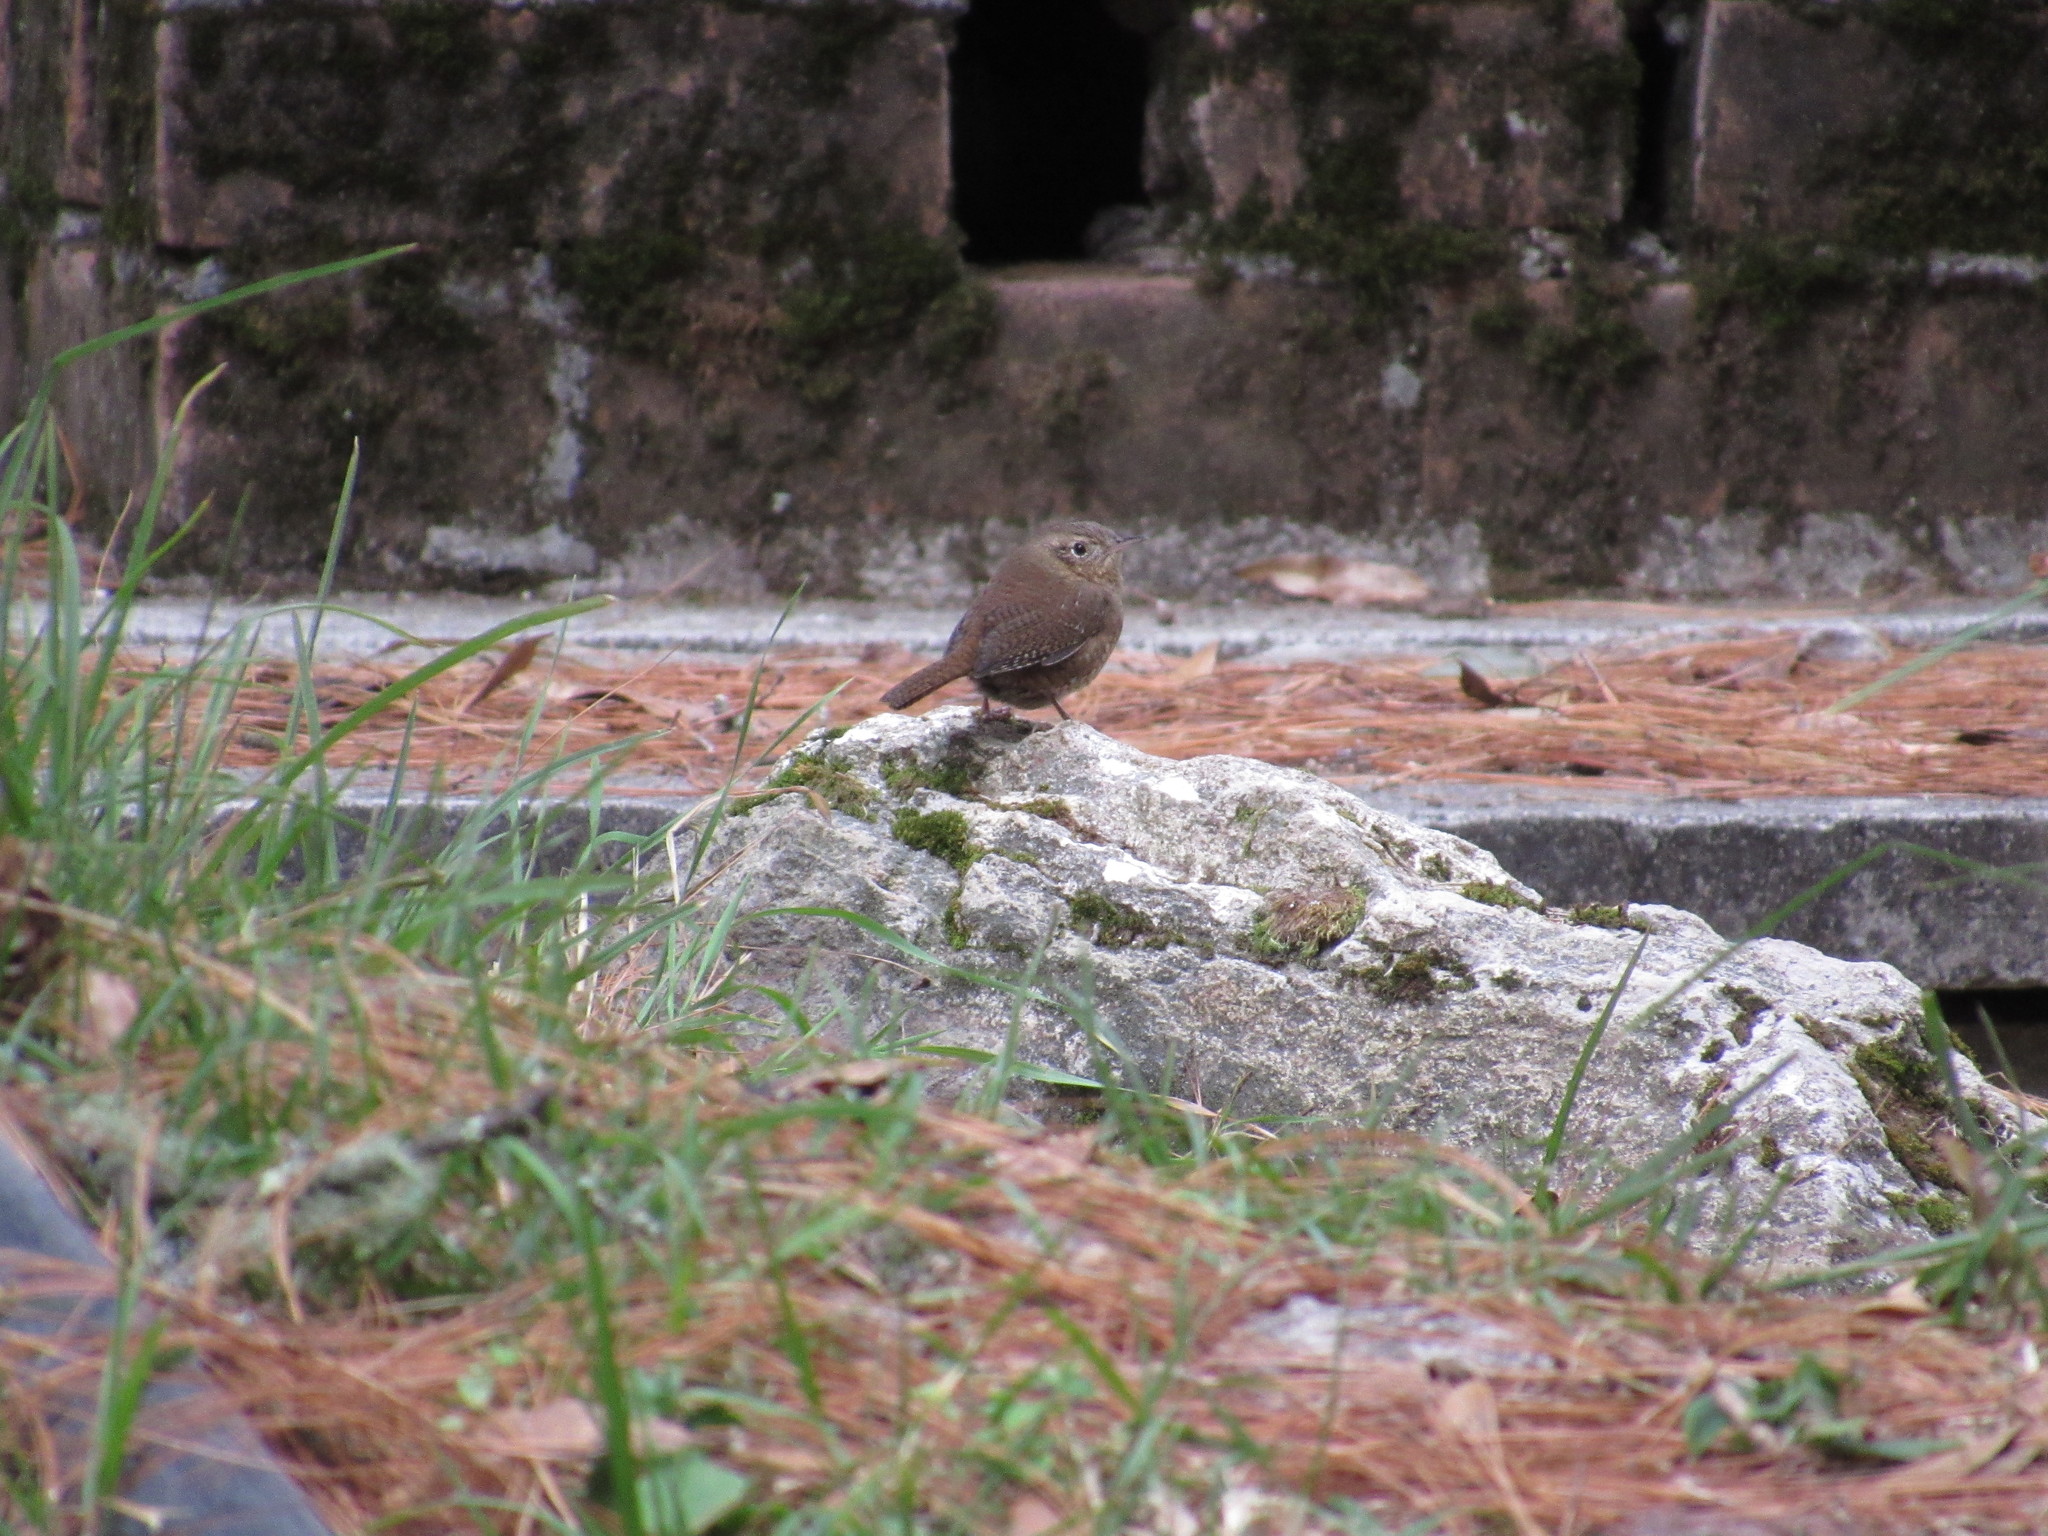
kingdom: Animalia
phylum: Chordata
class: Aves
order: Passeriformes
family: Troglodytidae
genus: Troglodytes
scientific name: Troglodytes aedon
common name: House wren
